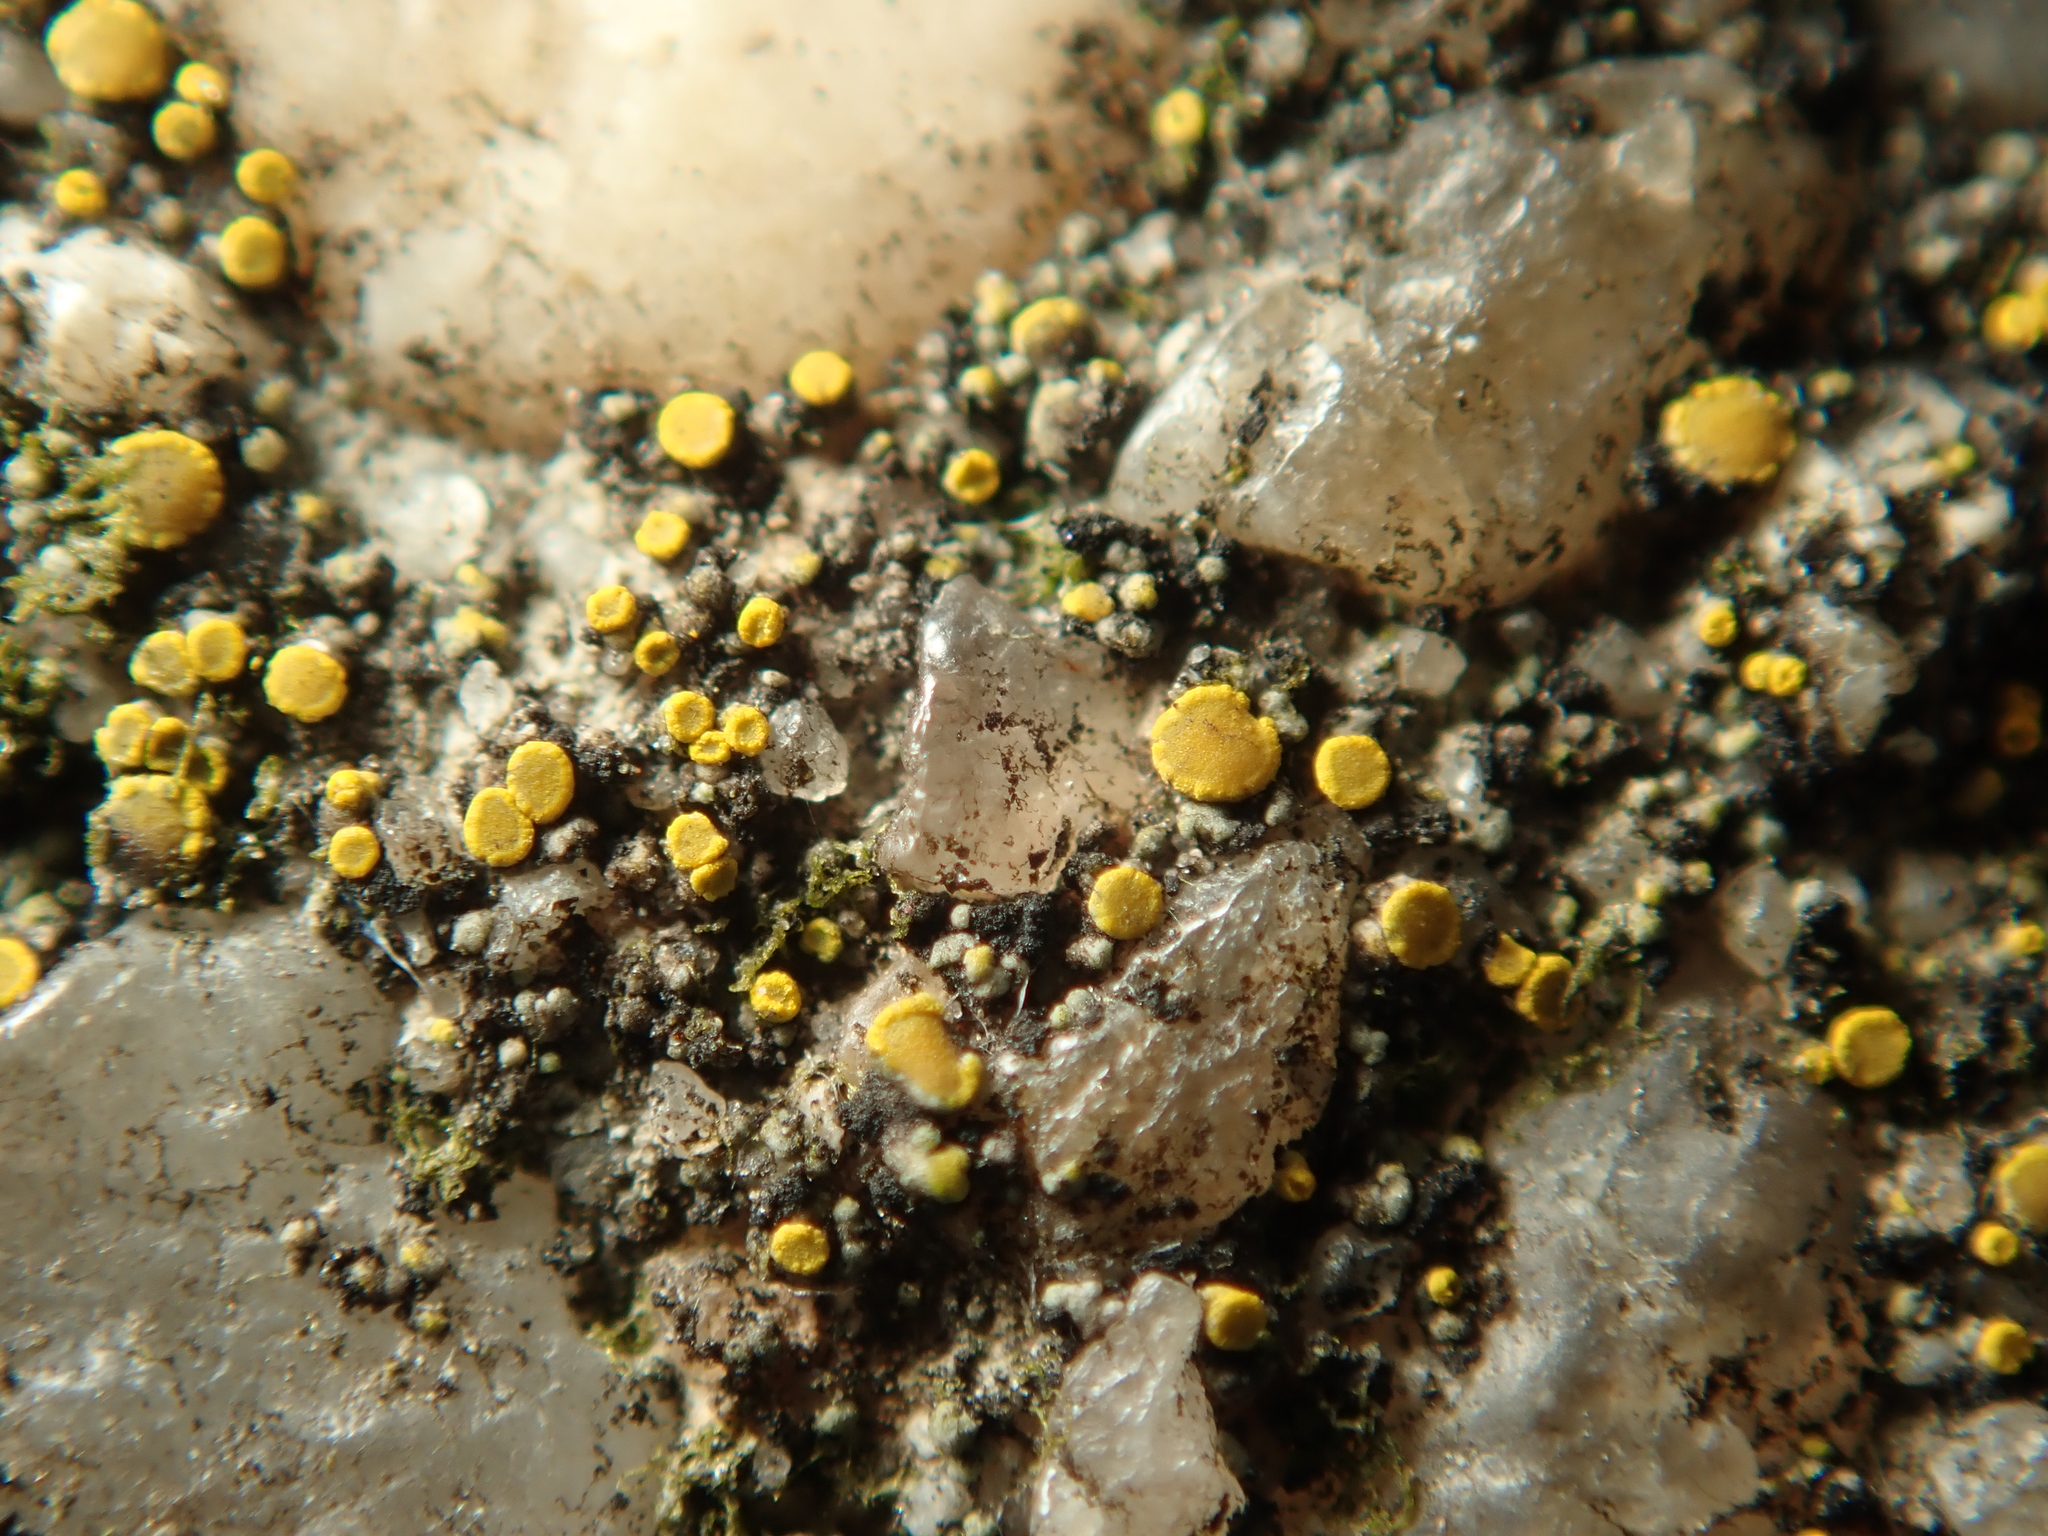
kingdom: Fungi
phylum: Ascomycota
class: Candelariomycetes
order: Candelariales
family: Candelariaceae
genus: Candelariella
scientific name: Candelariella aurella
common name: Hidden goldspeck lichen
